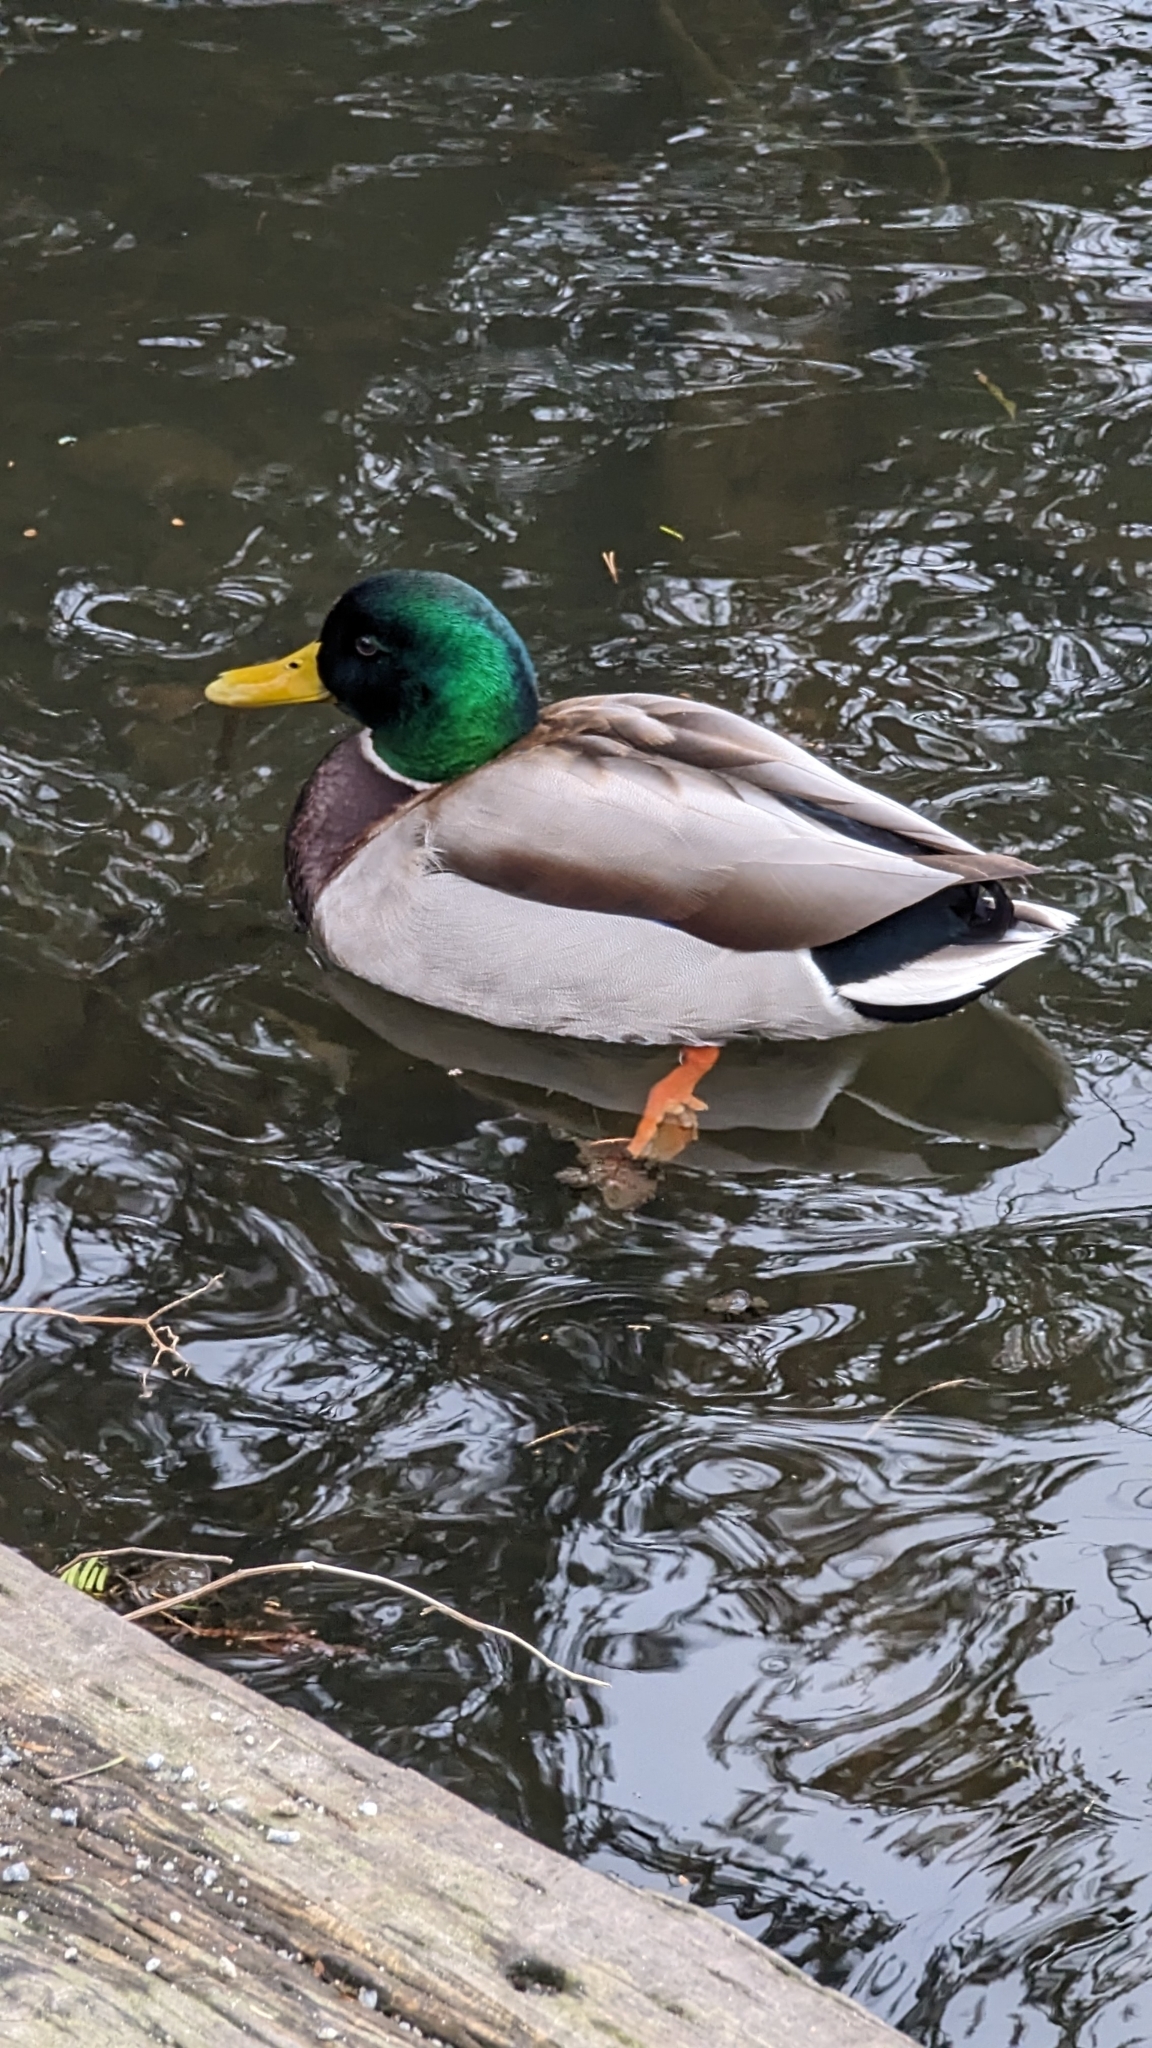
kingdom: Animalia
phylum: Chordata
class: Aves
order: Anseriformes
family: Anatidae
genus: Anas
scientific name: Anas platyrhynchos
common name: Mallard
